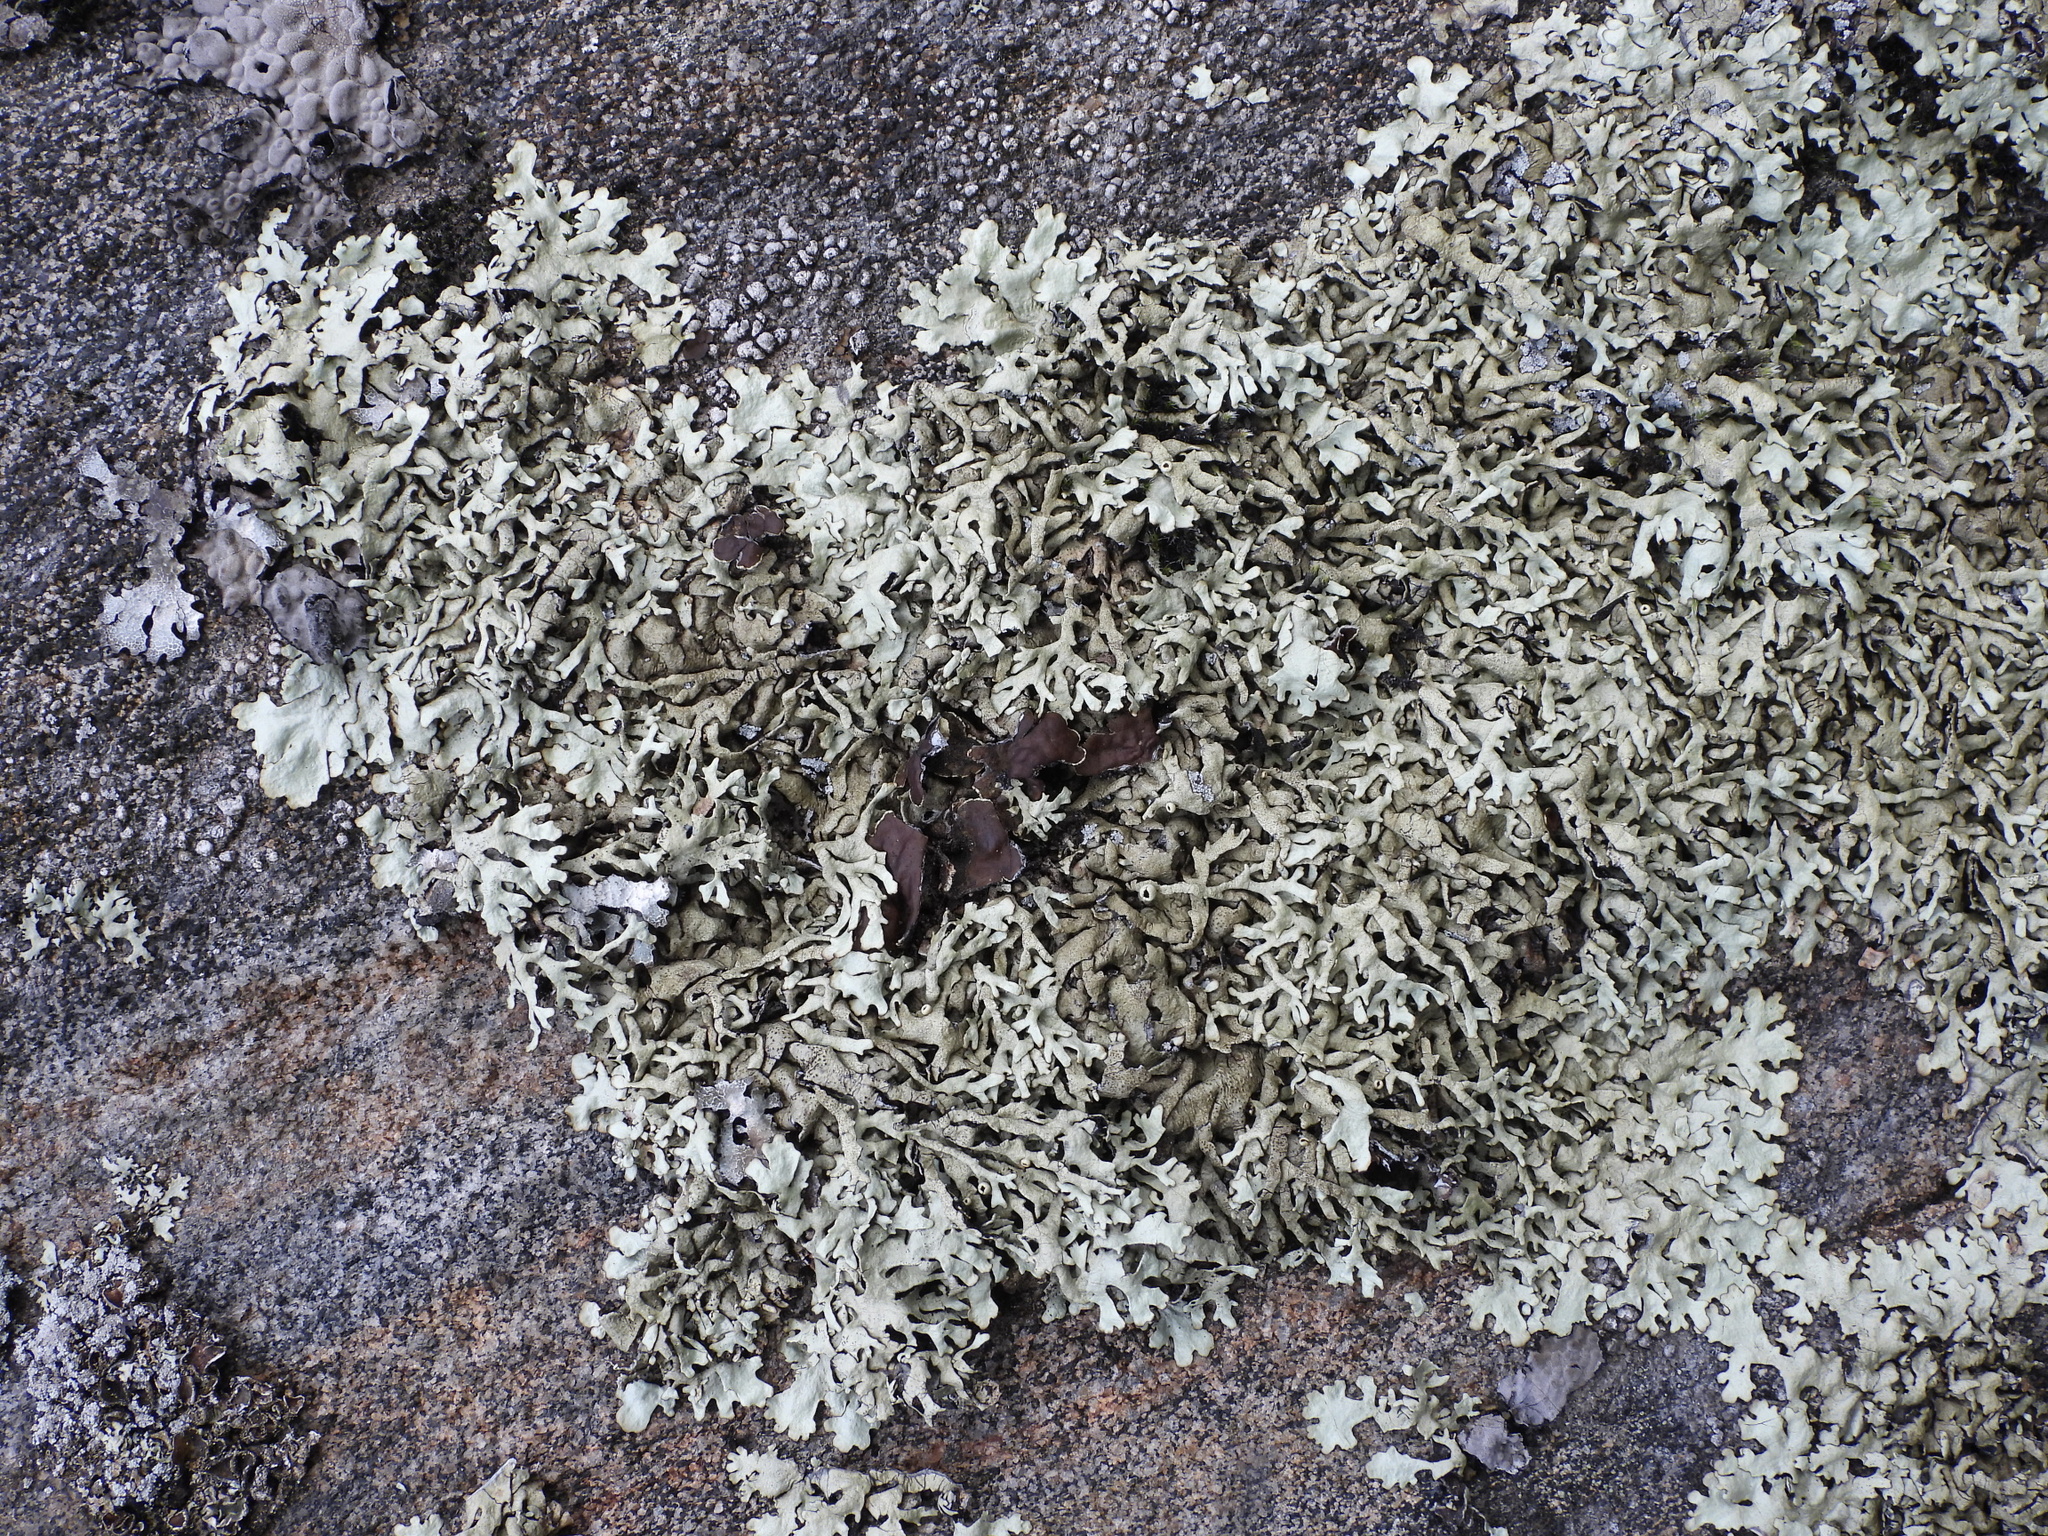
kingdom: Fungi
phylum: Ascomycota
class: Lecanoromycetes
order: Lecanorales
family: Parmeliaceae
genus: Xanthoparmelia
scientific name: Xanthoparmelia stenophylla
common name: Shingled rock shield
